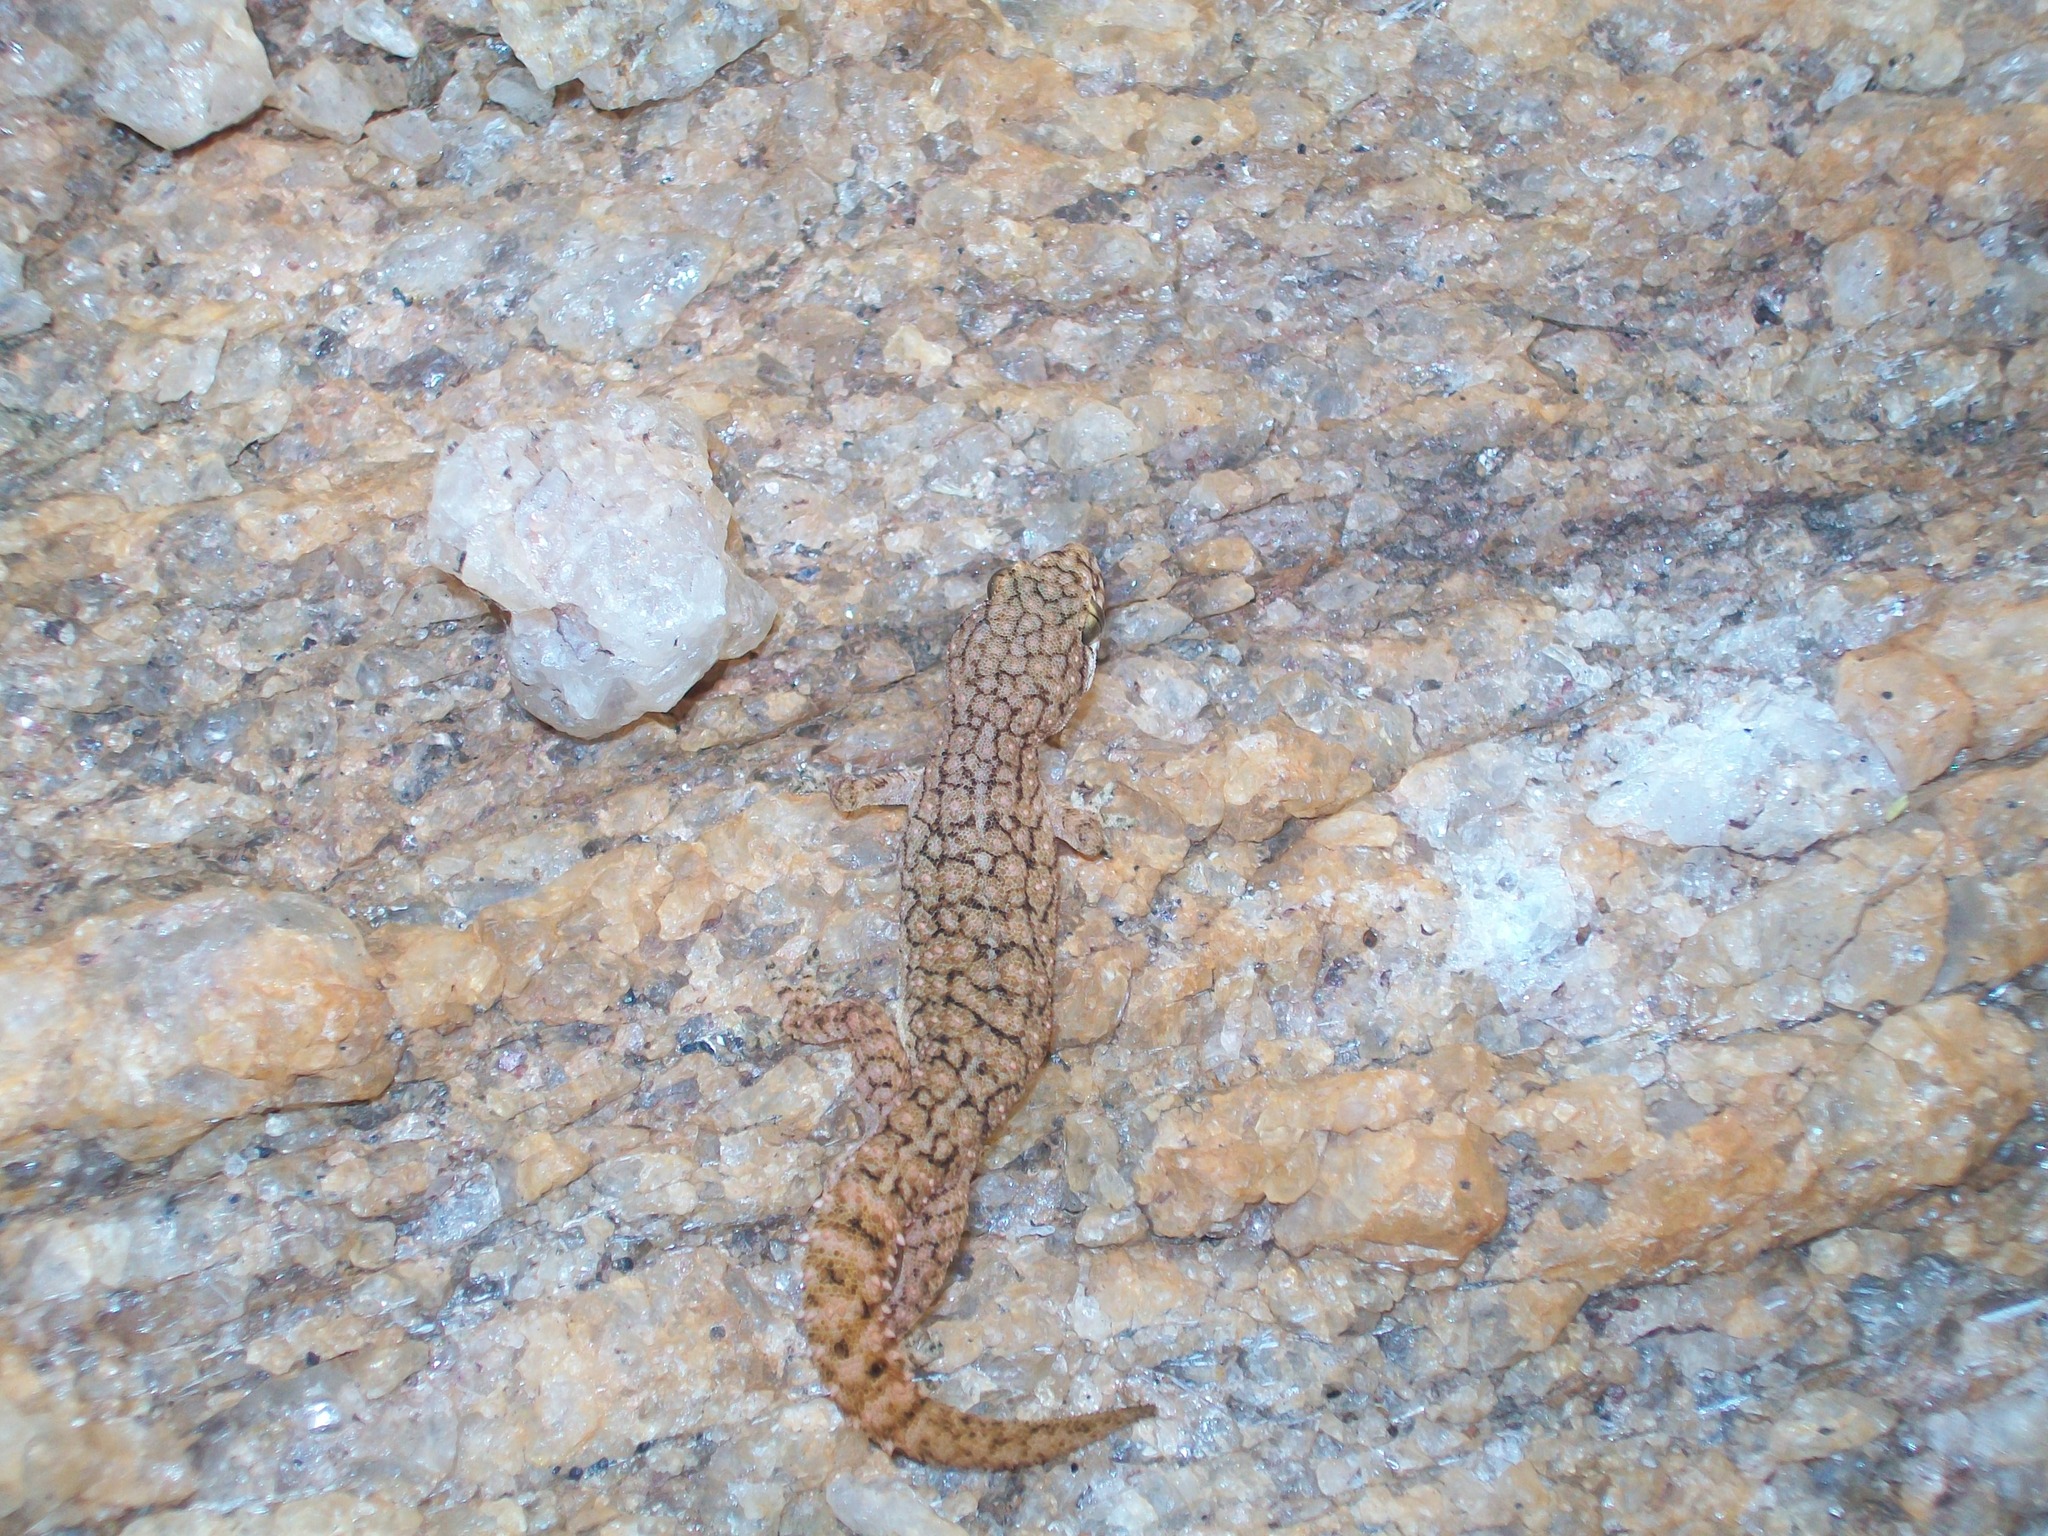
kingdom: Animalia
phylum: Chordata
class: Squamata
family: Gekkonidae
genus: Hemidactylus
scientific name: Hemidactylus reticulatus
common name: Reticulate leaf-toed gecko
